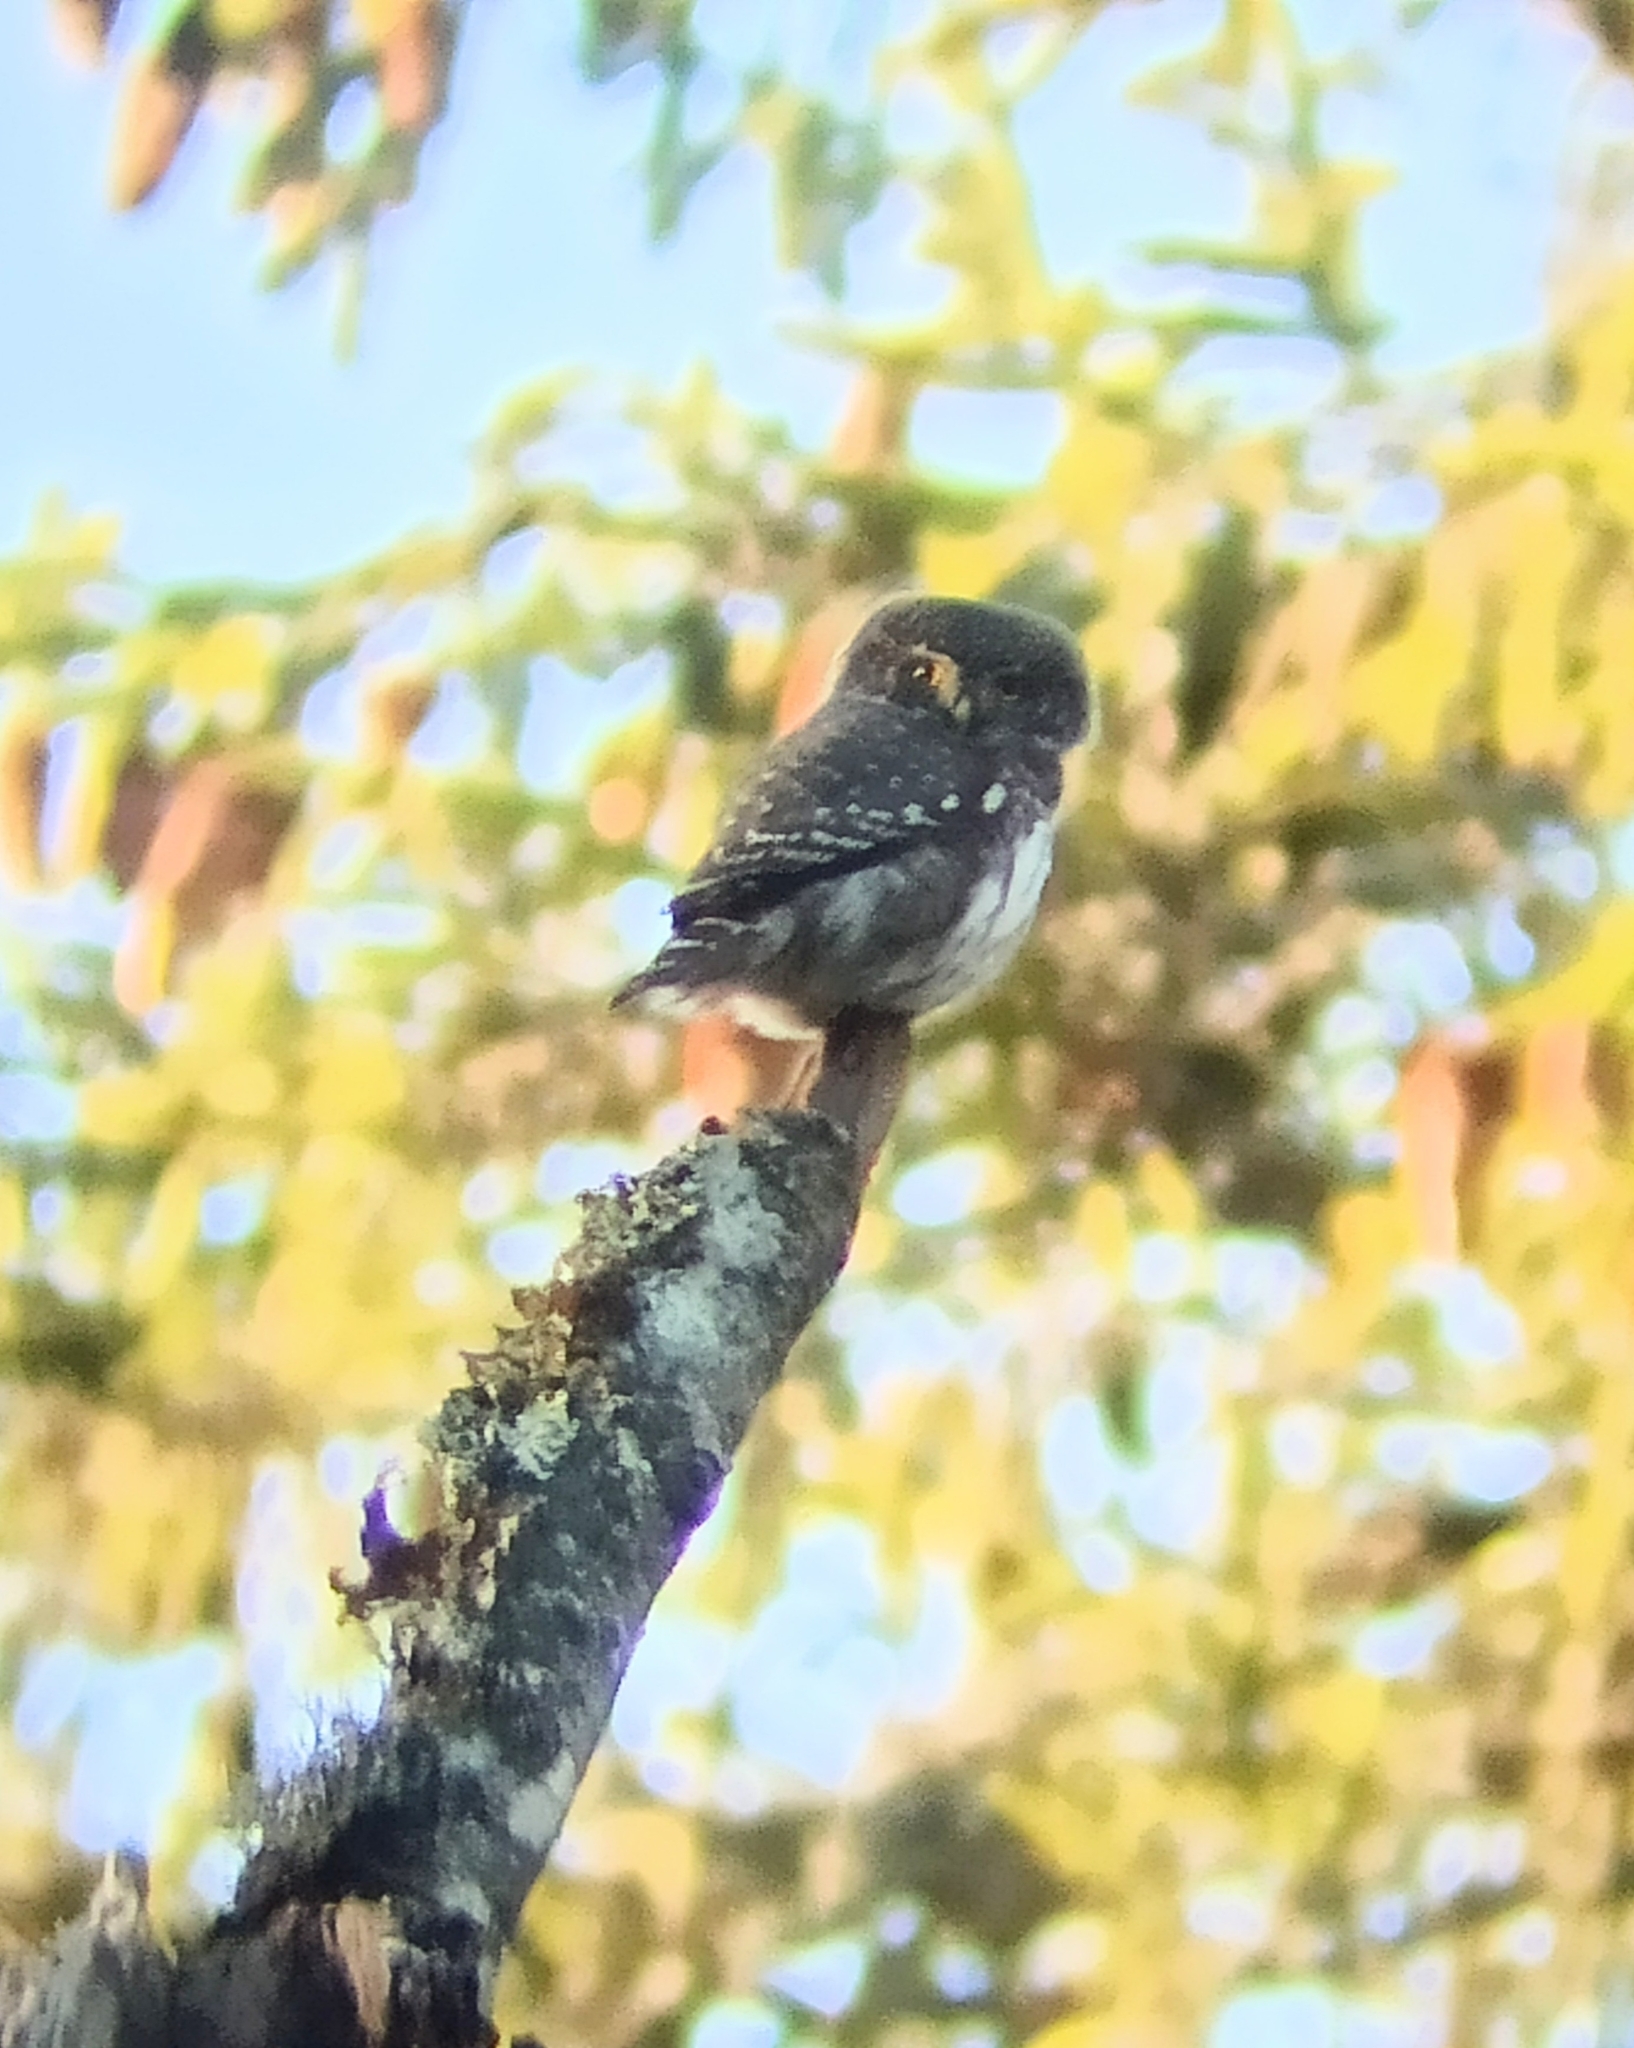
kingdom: Animalia
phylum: Chordata
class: Aves
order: Strigiformes
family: Strigidae
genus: Glaucidium
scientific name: Glaucidium passerinum
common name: Eurasian pygmy owl
